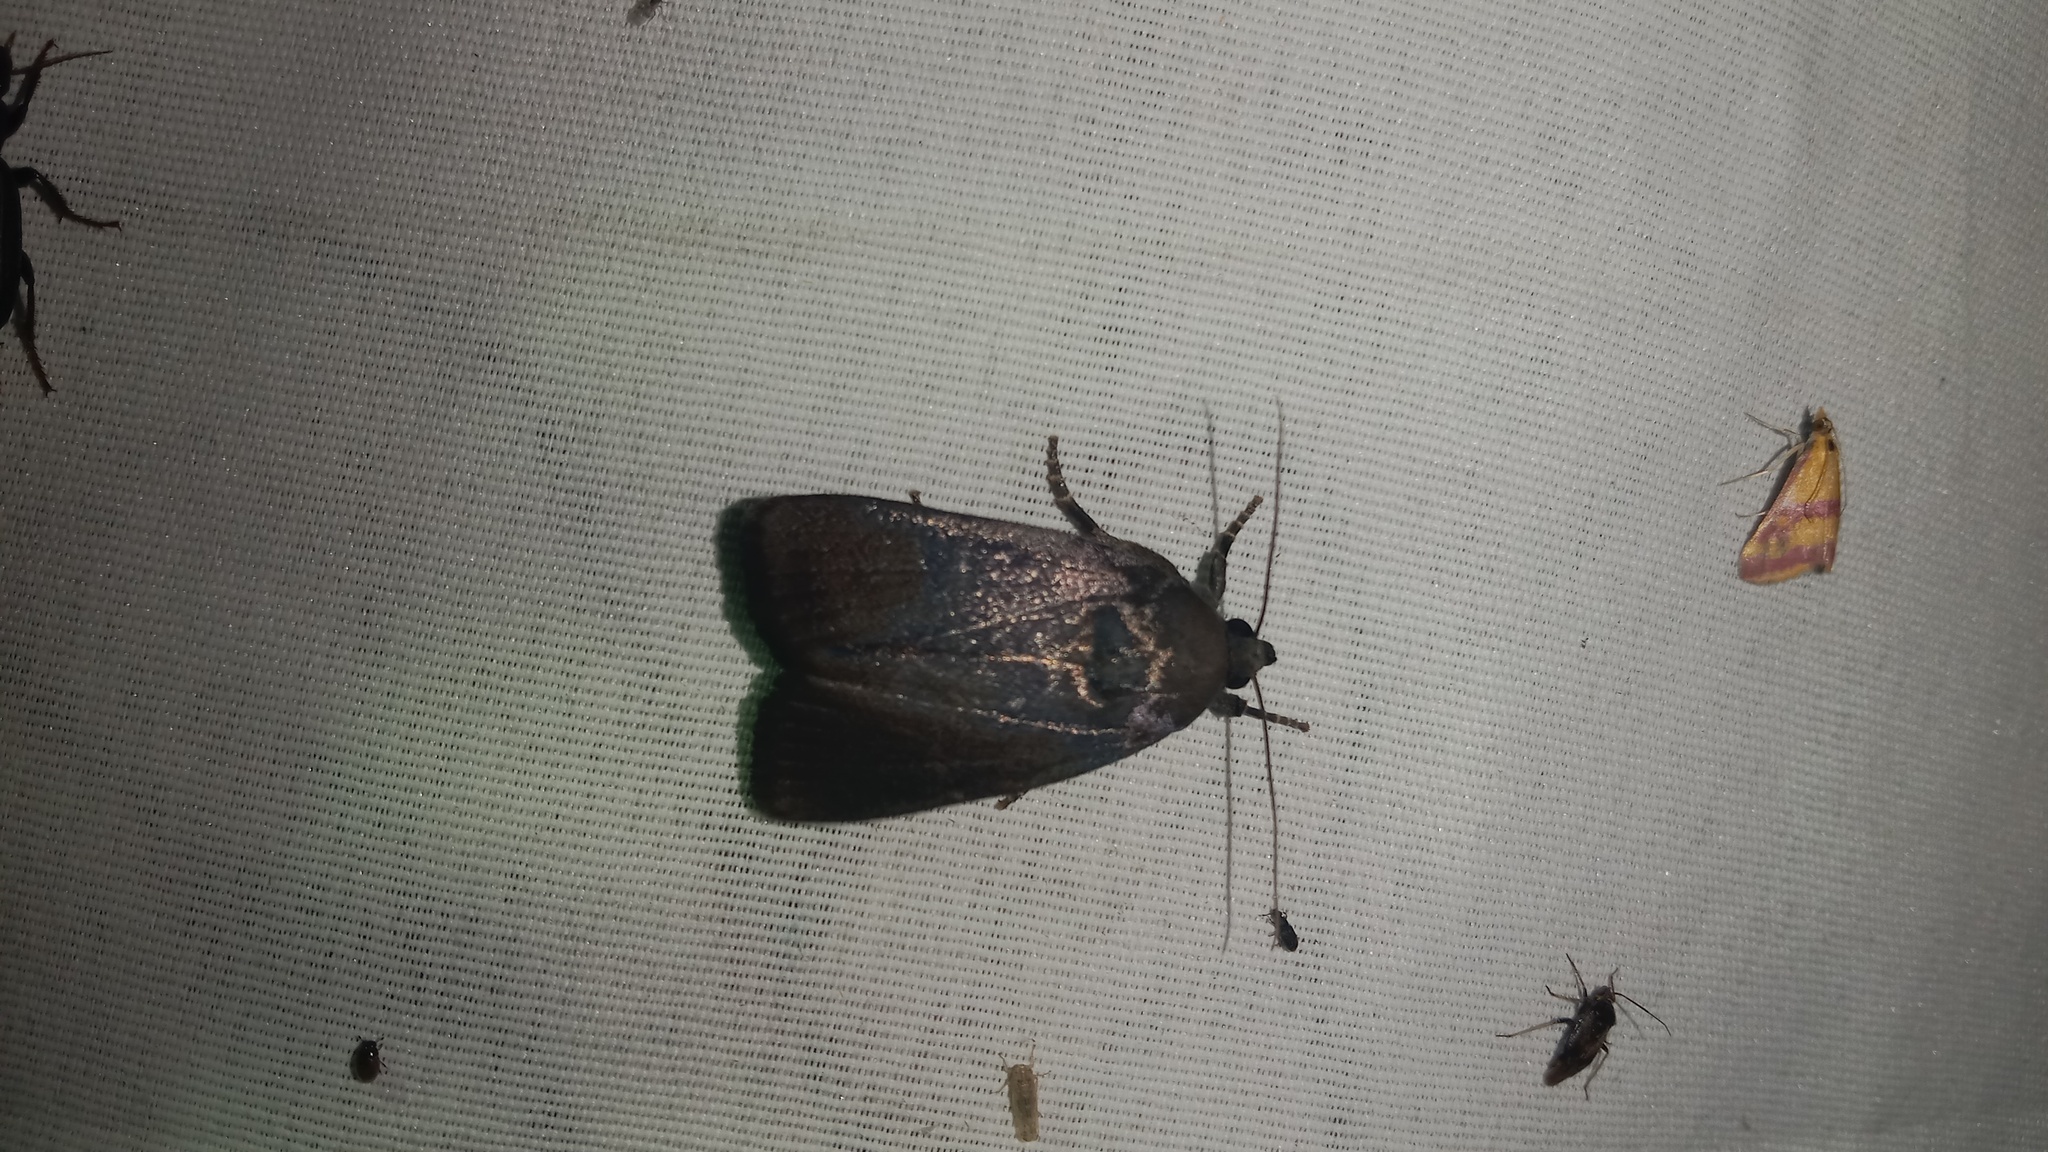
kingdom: Animalia
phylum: Arthropoda
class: Insecta
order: Lepidoptera
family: Noctuidae
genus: Amphipyra
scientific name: Amphipyra livida
